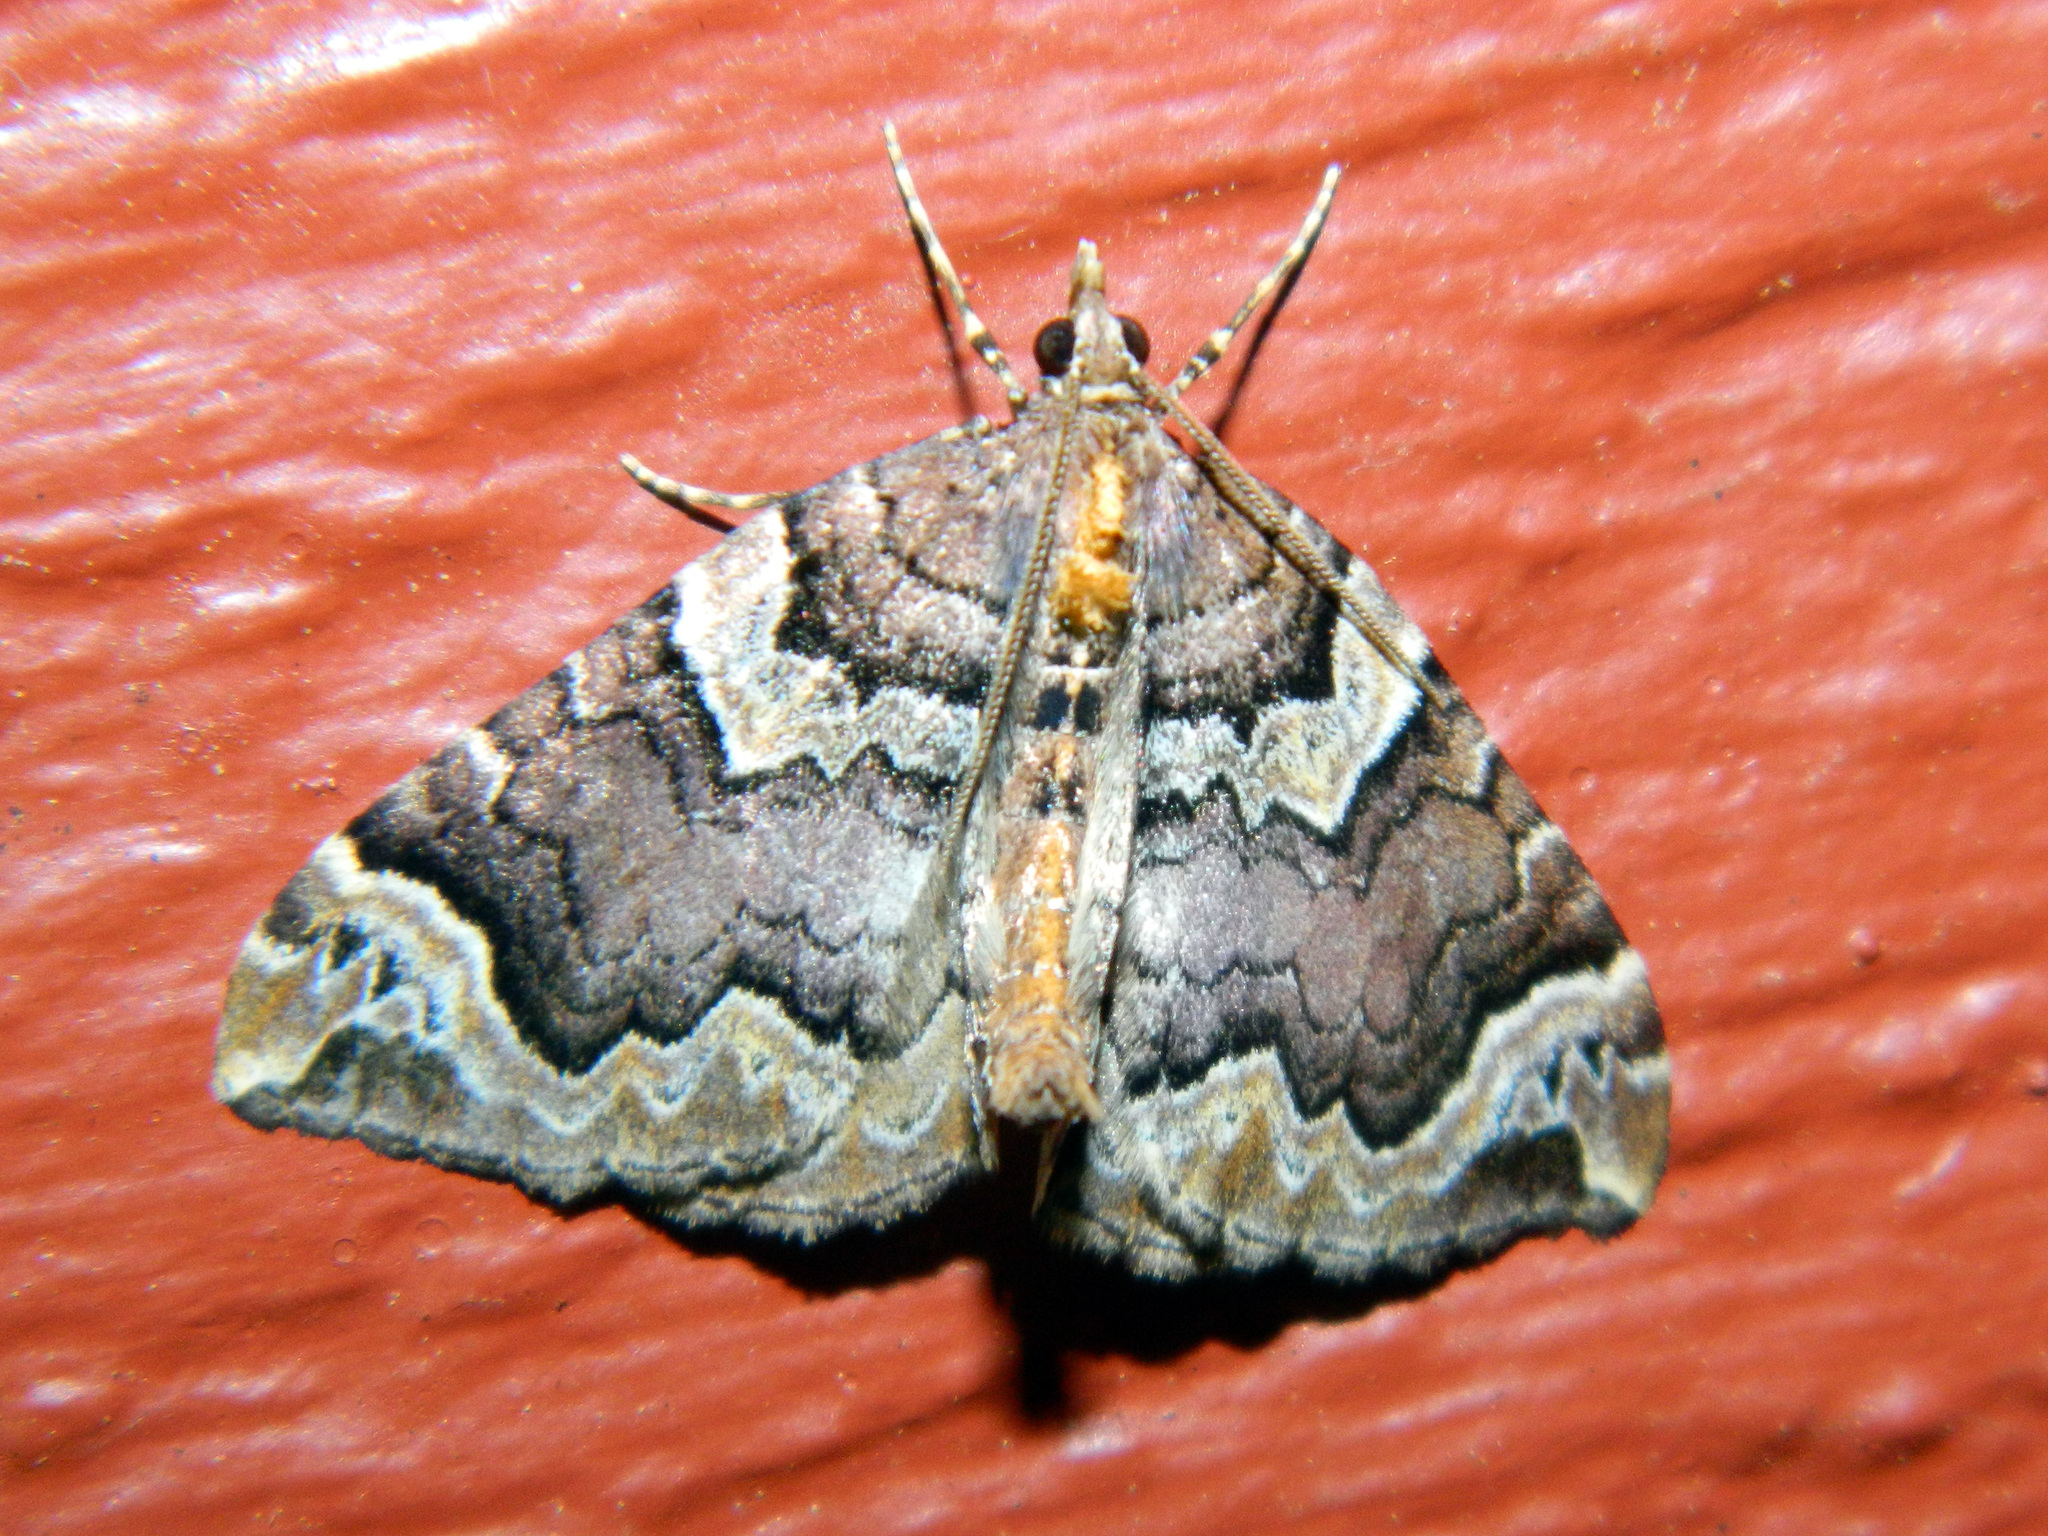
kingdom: Animalia
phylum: Arthropoda
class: Insecta
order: Lepidoptera
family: Geometridae
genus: Eulithis
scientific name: Eulithis serrataria
